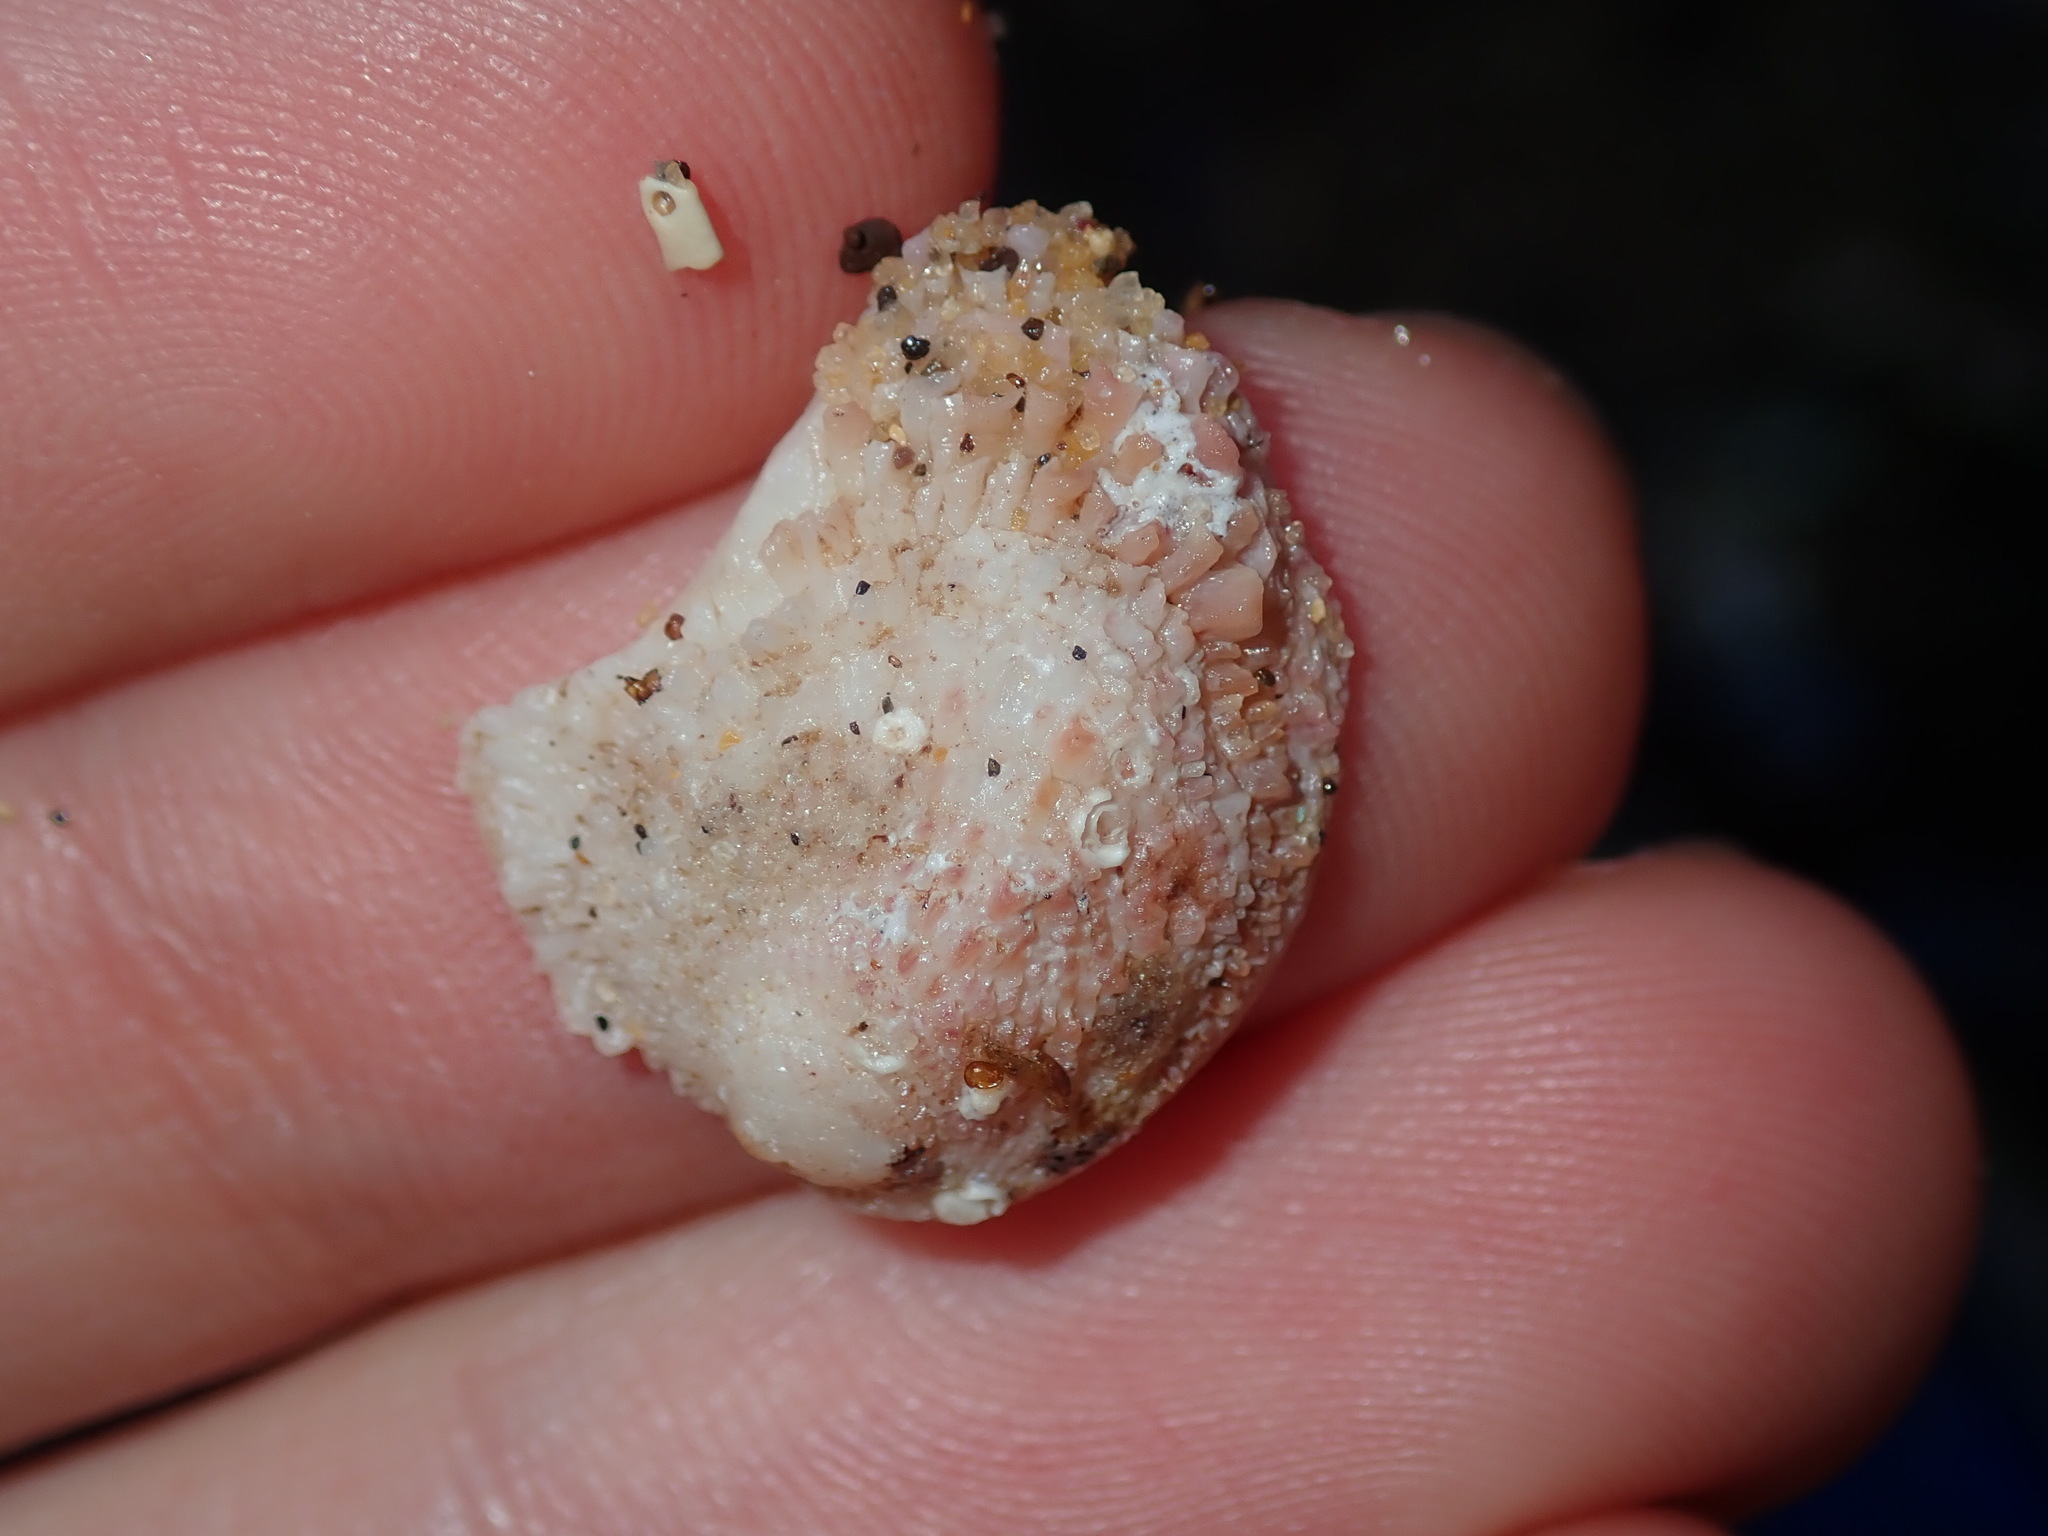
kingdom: Animalia
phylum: Mollusca
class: Bivalvia
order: Venerida
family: Chamidae
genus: Chama
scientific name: Chama asperella
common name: Mollusca
